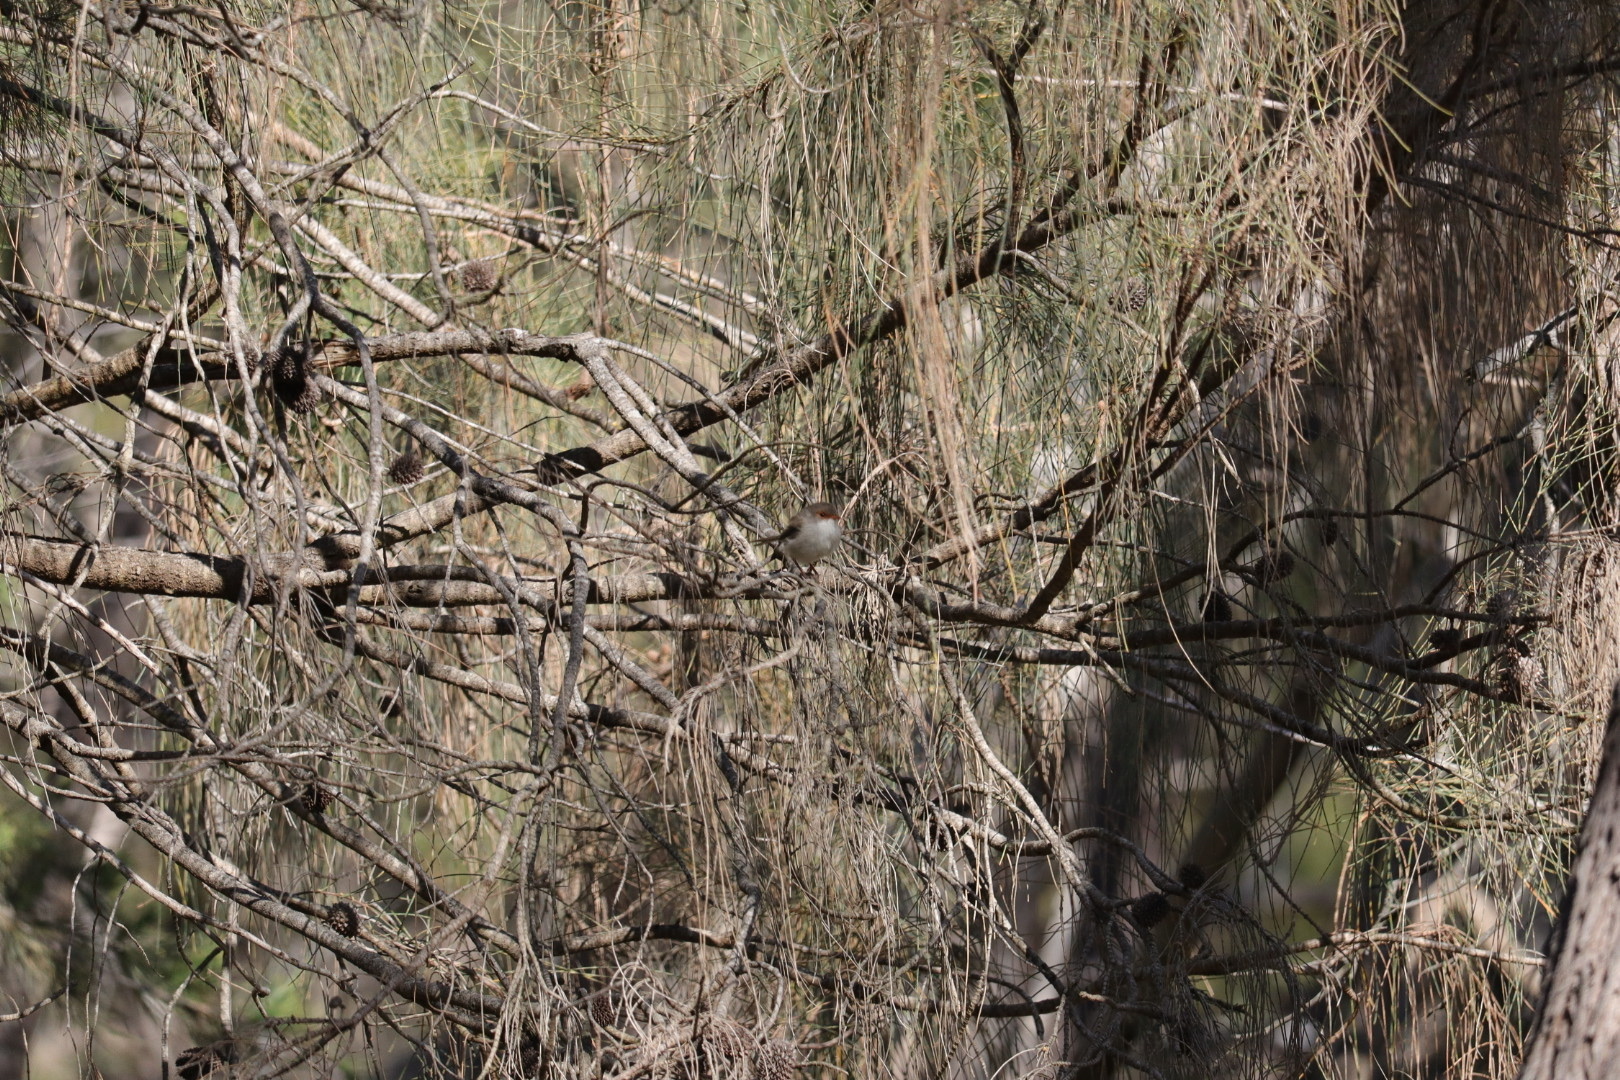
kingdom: Animalia
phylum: Chordata
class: Aves
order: Passeriformes
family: Maluridae
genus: Malurus
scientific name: Malurus cyaneus
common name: Superb fairywren
